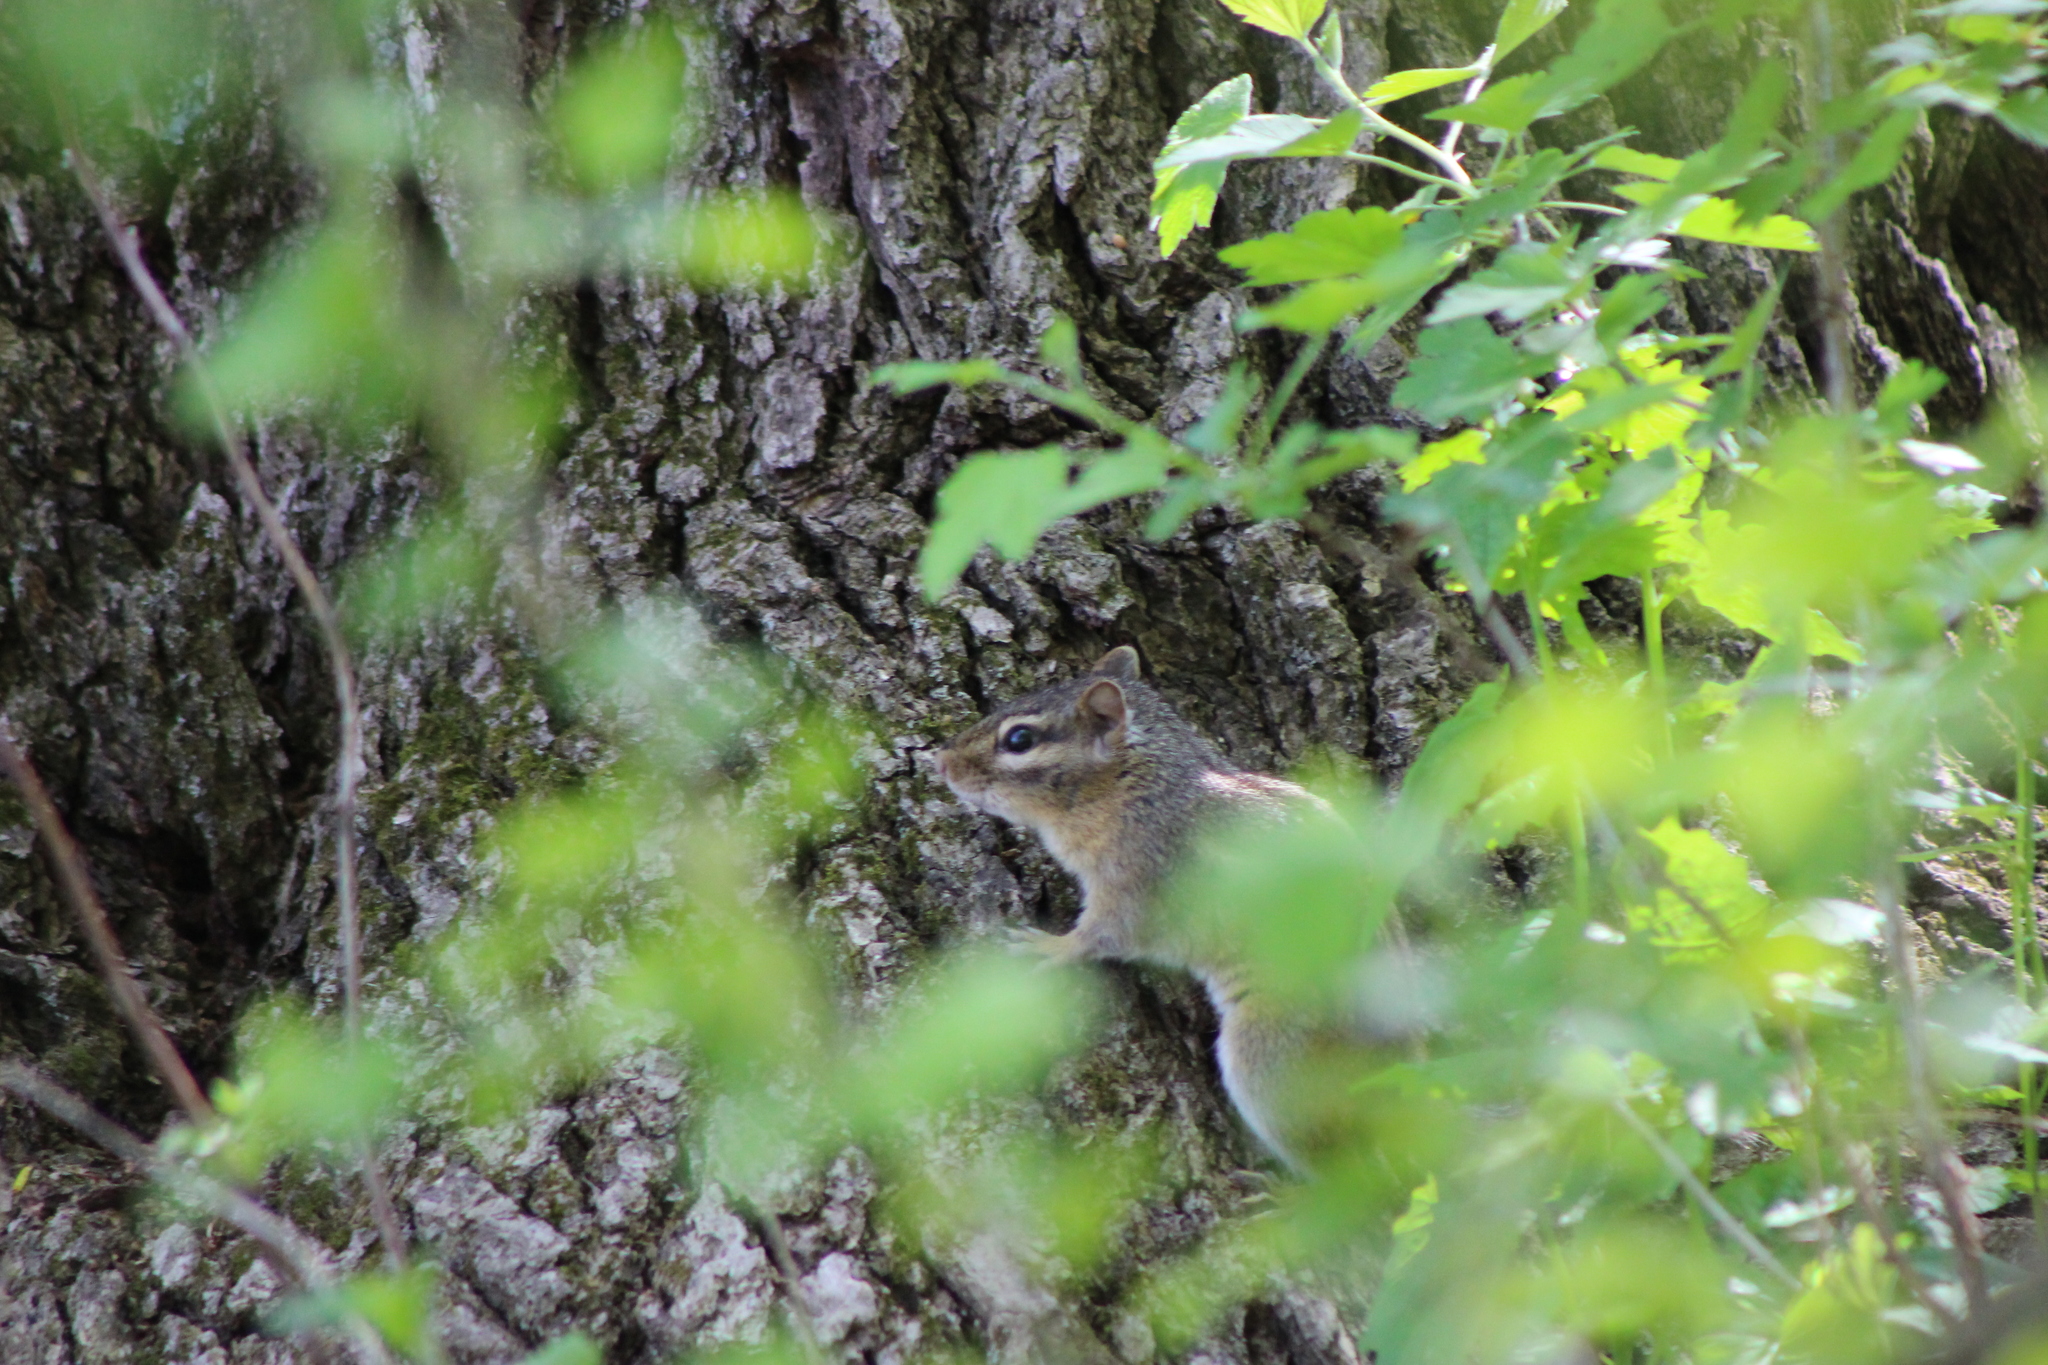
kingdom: Animalia
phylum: Chordata
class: Mammalia
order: Rodentia
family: Sciuridae
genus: Tamias
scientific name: Tamias striatus
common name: Eastern chipmunk
